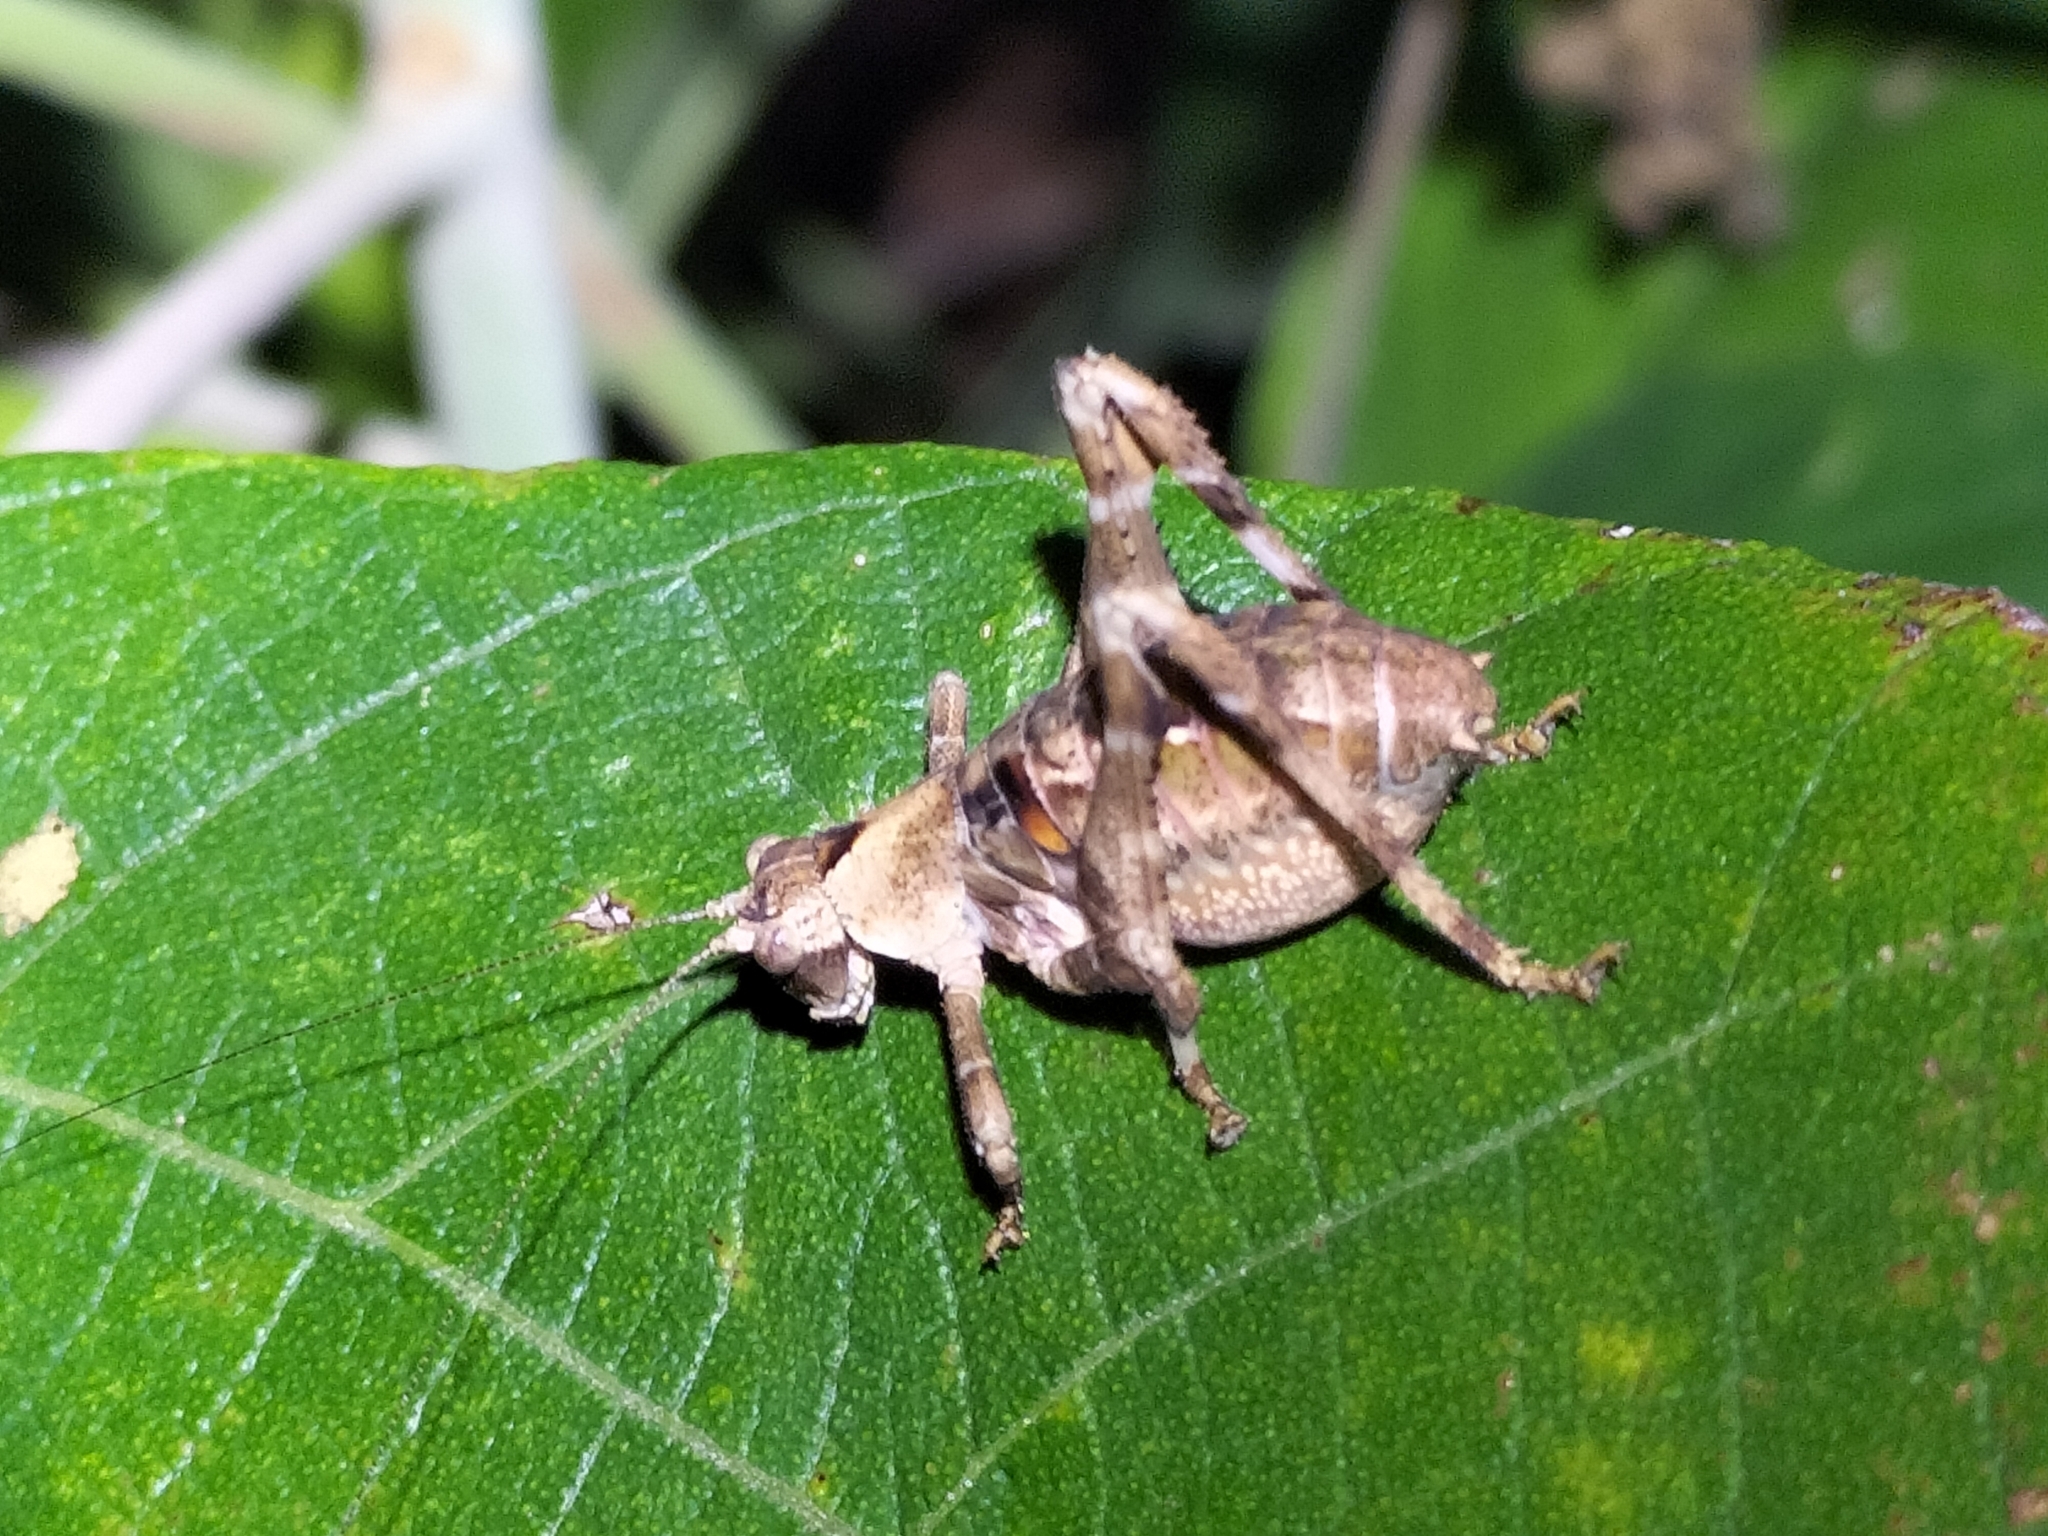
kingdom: Animalia
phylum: Arthropoda
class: Insecta
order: Orthoptera
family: Tettigoniidae
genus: Ephippitytha
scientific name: Ephippitytha kuranda
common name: Kuranda spotted katydid
